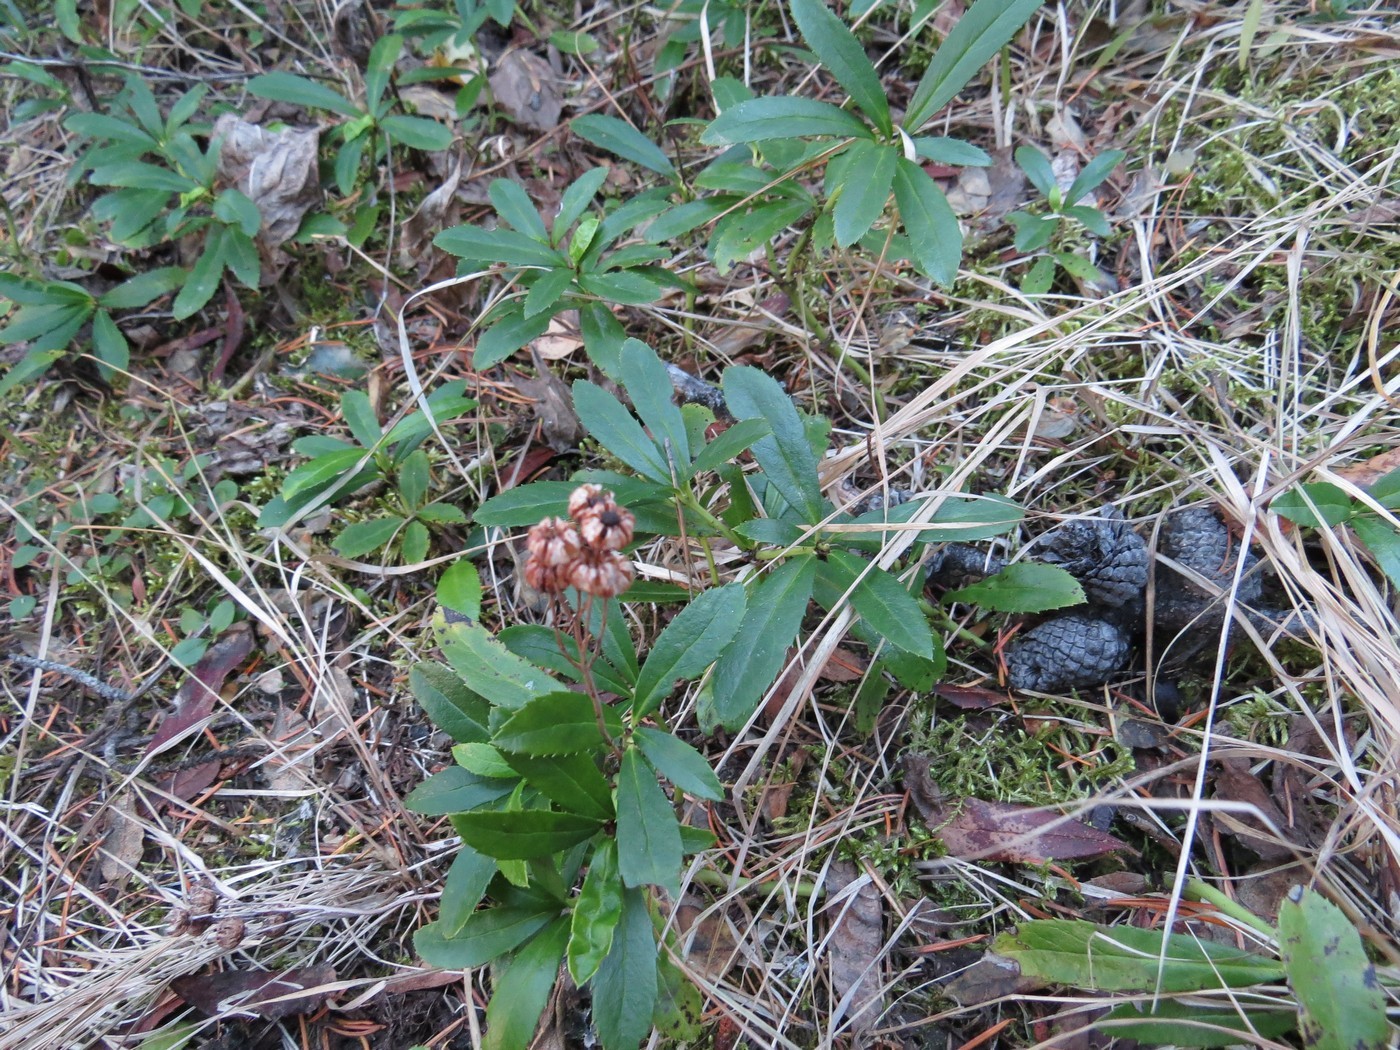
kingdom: Plantae
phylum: Tracheophyta
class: Magnoliopsida
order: Ericales
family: Ericaceae
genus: Chimaphila
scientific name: Chimaphila umbellata
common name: Pipsissewa
